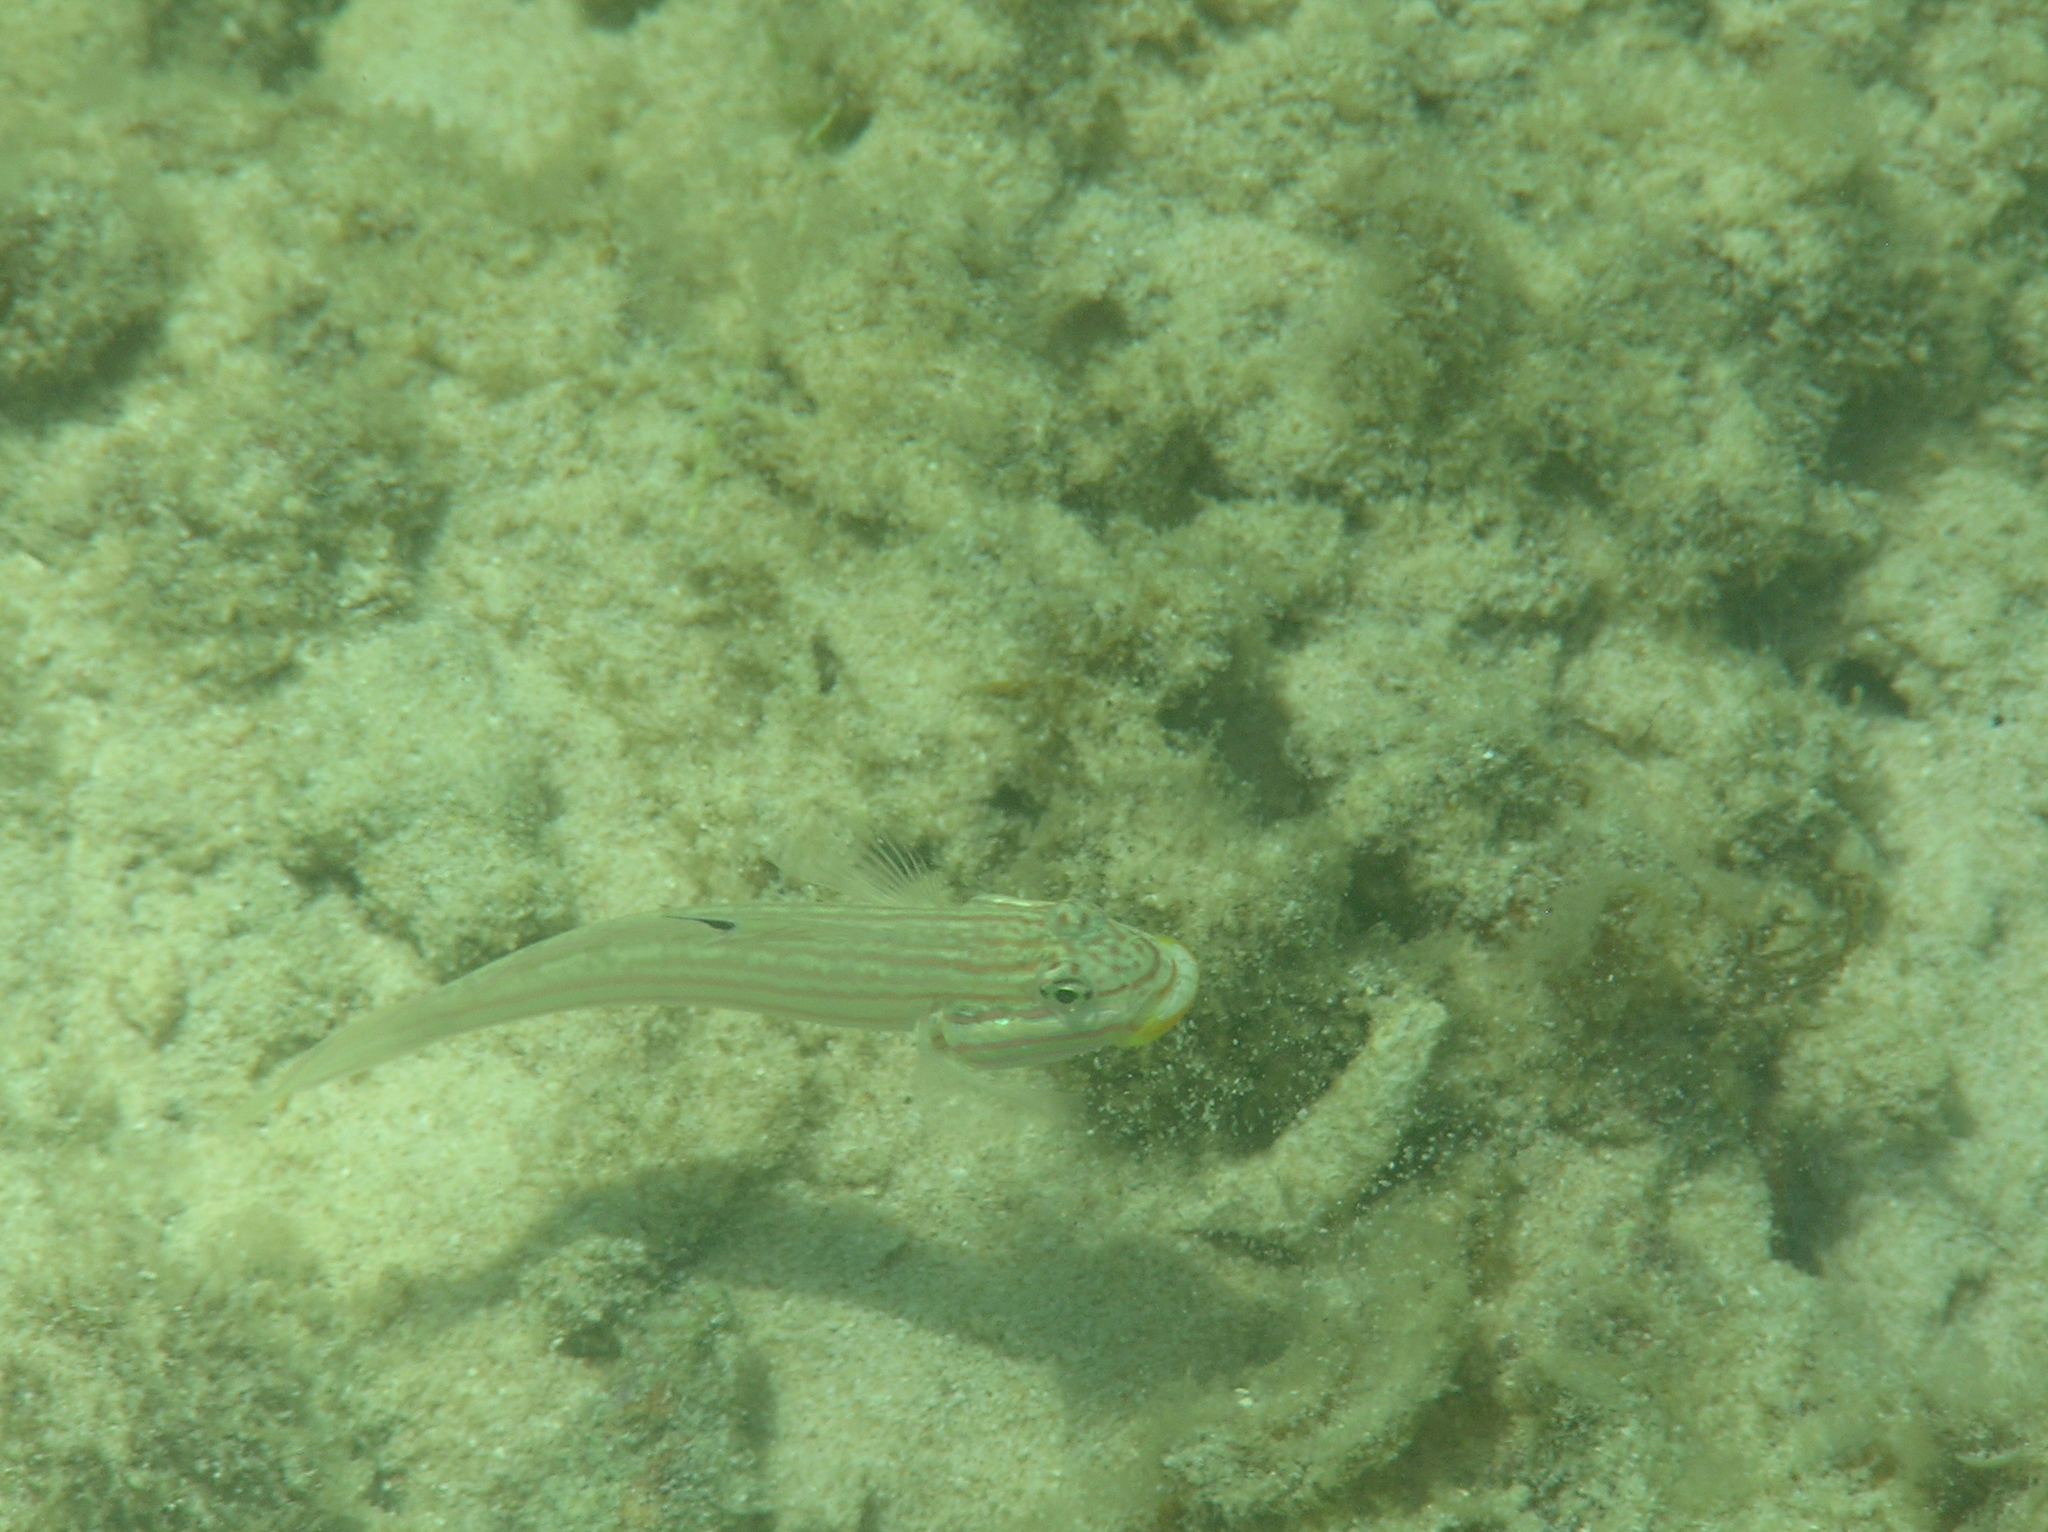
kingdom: Animalia
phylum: Chordata
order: Perciformes
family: Gobiidae
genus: Valenciennea
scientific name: Valenciennea muralis
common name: Mural goby
